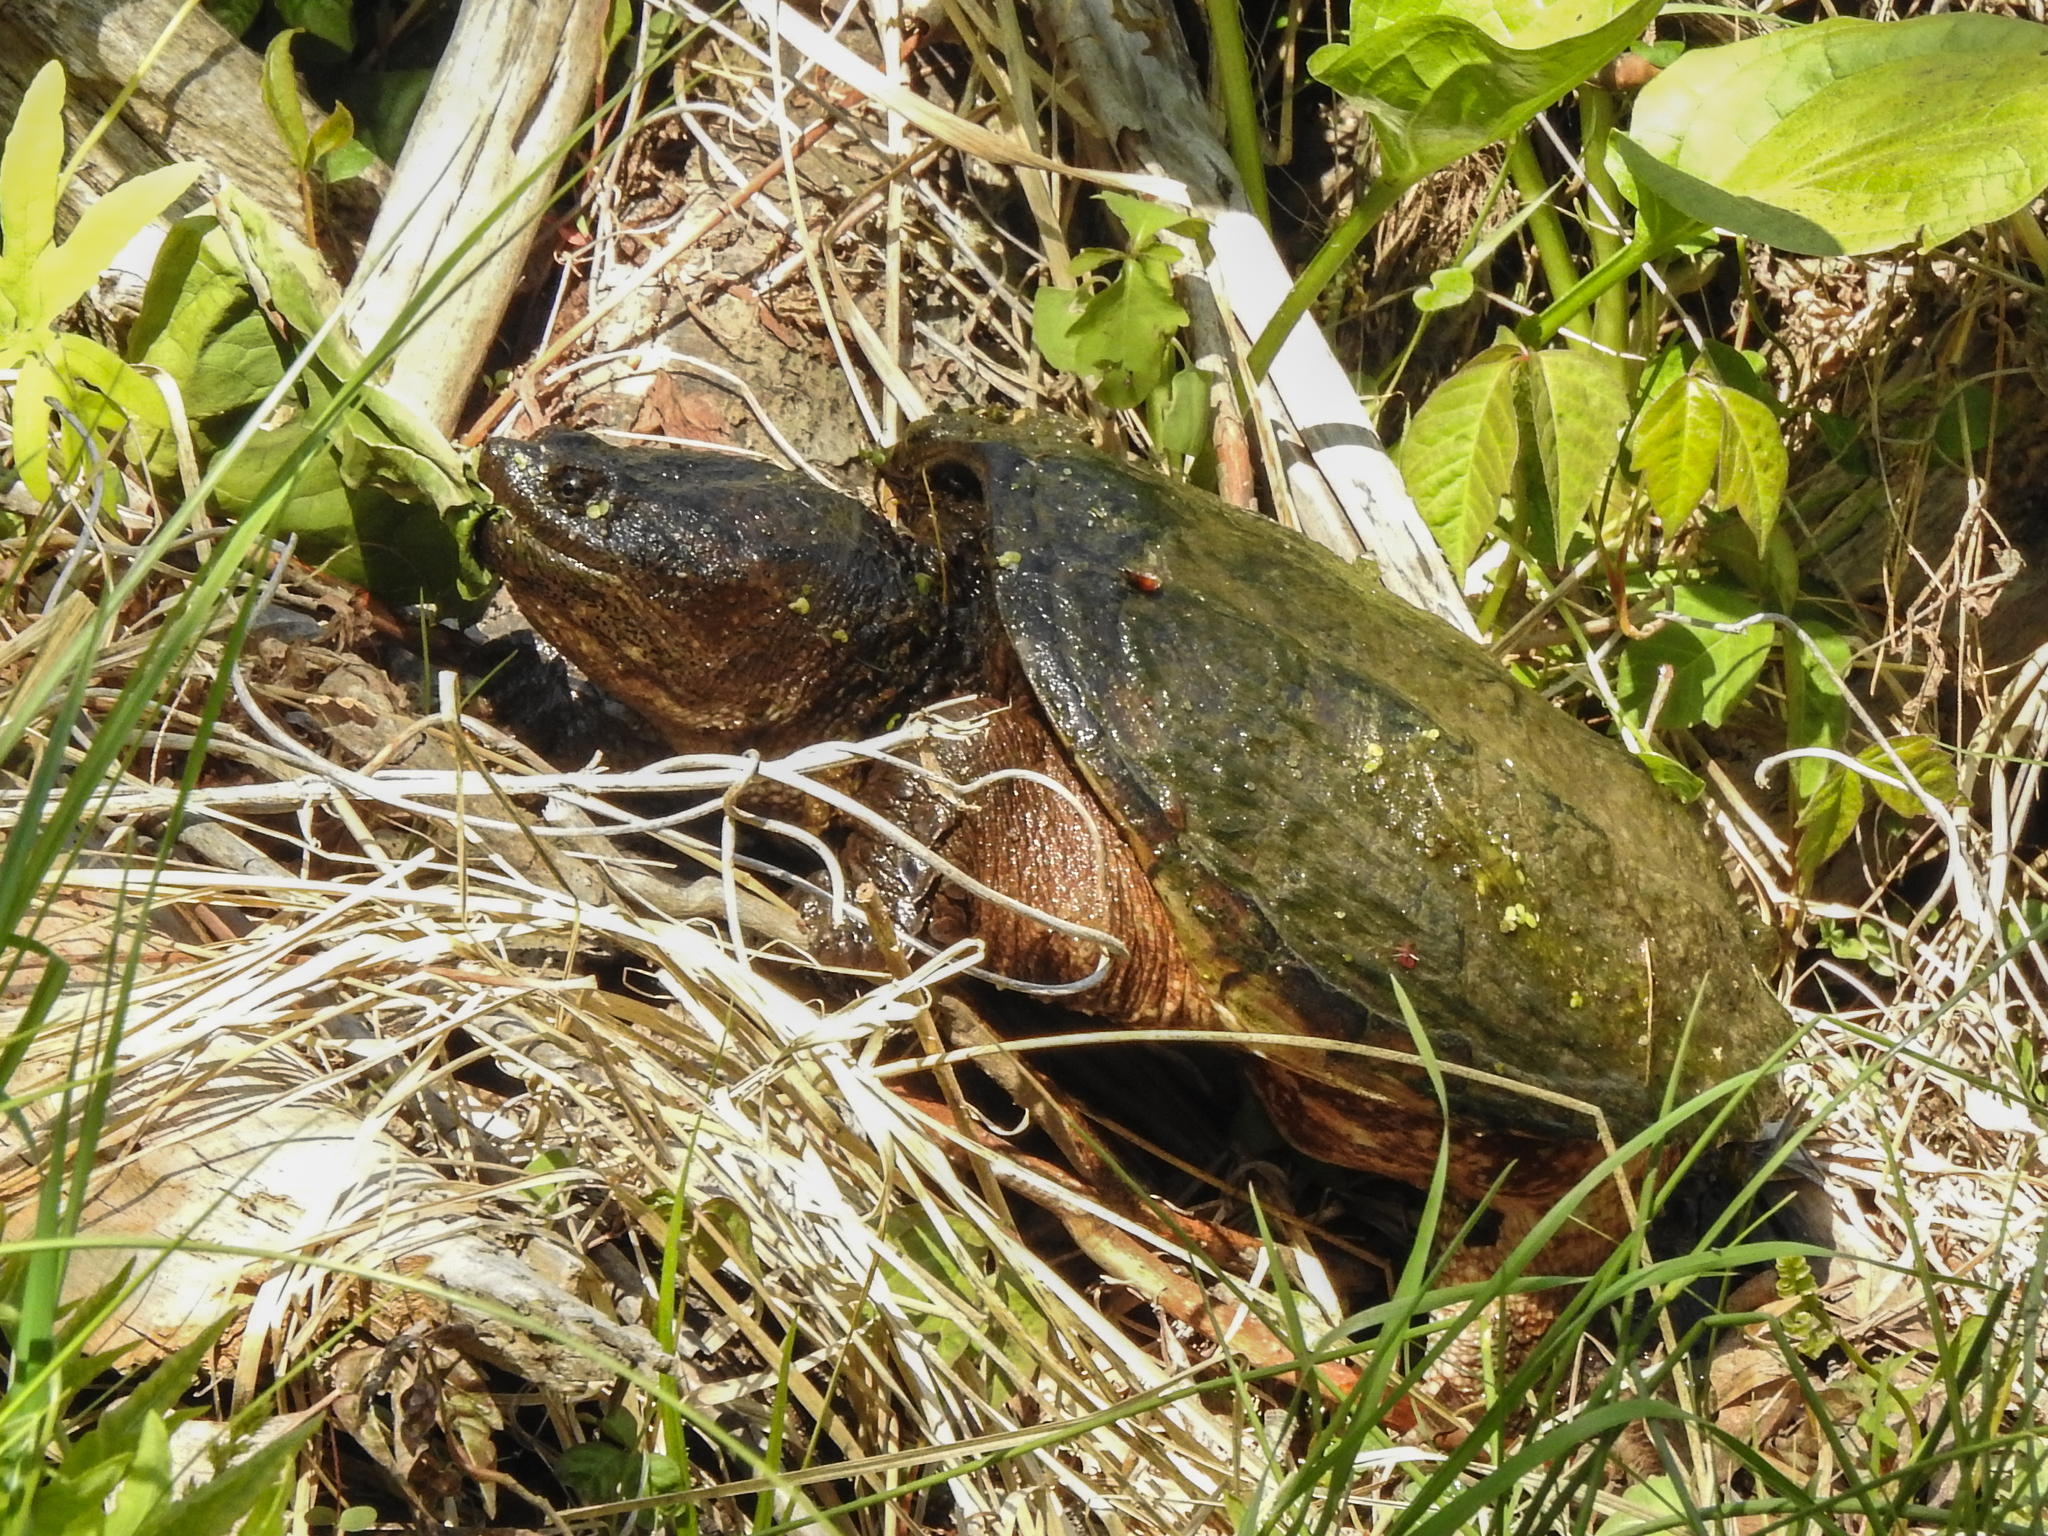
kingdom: Animalia
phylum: Chordata
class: Testudines
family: Chelydridae
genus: Chelydra
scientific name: Chelydra serpentina
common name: Common snapping turtle
